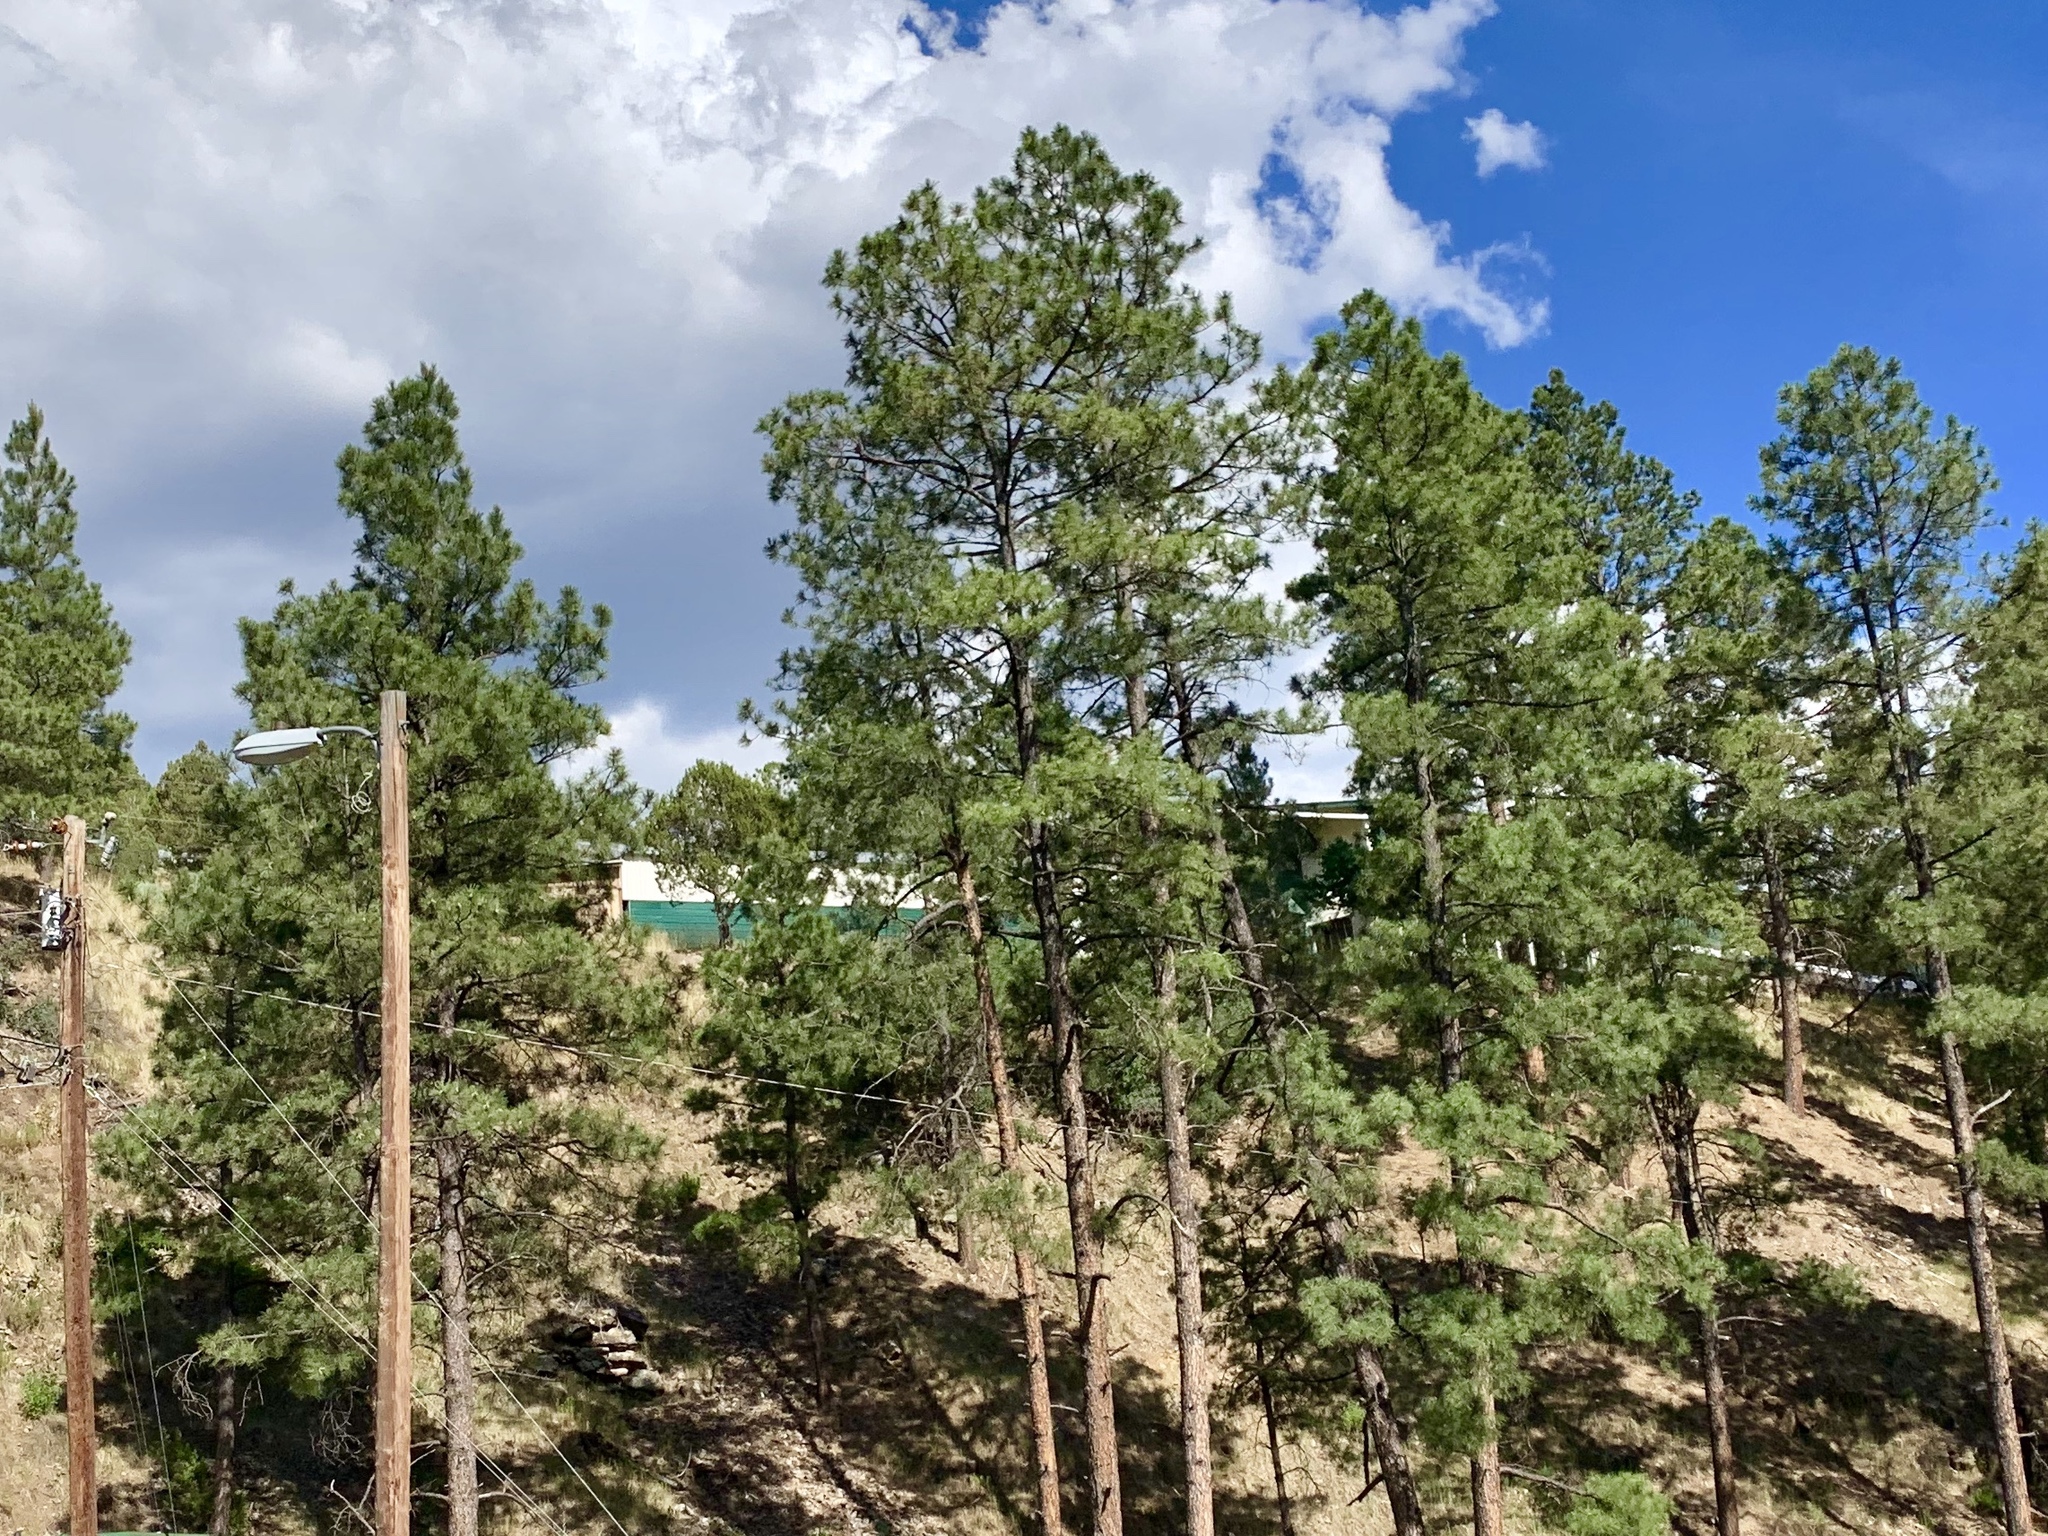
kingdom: Plantae
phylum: Tracheophyta
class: Pinopsida
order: Pinales
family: Pinaceae
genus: Pinus
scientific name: Pinus ponderosa
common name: Western yellow-pine
